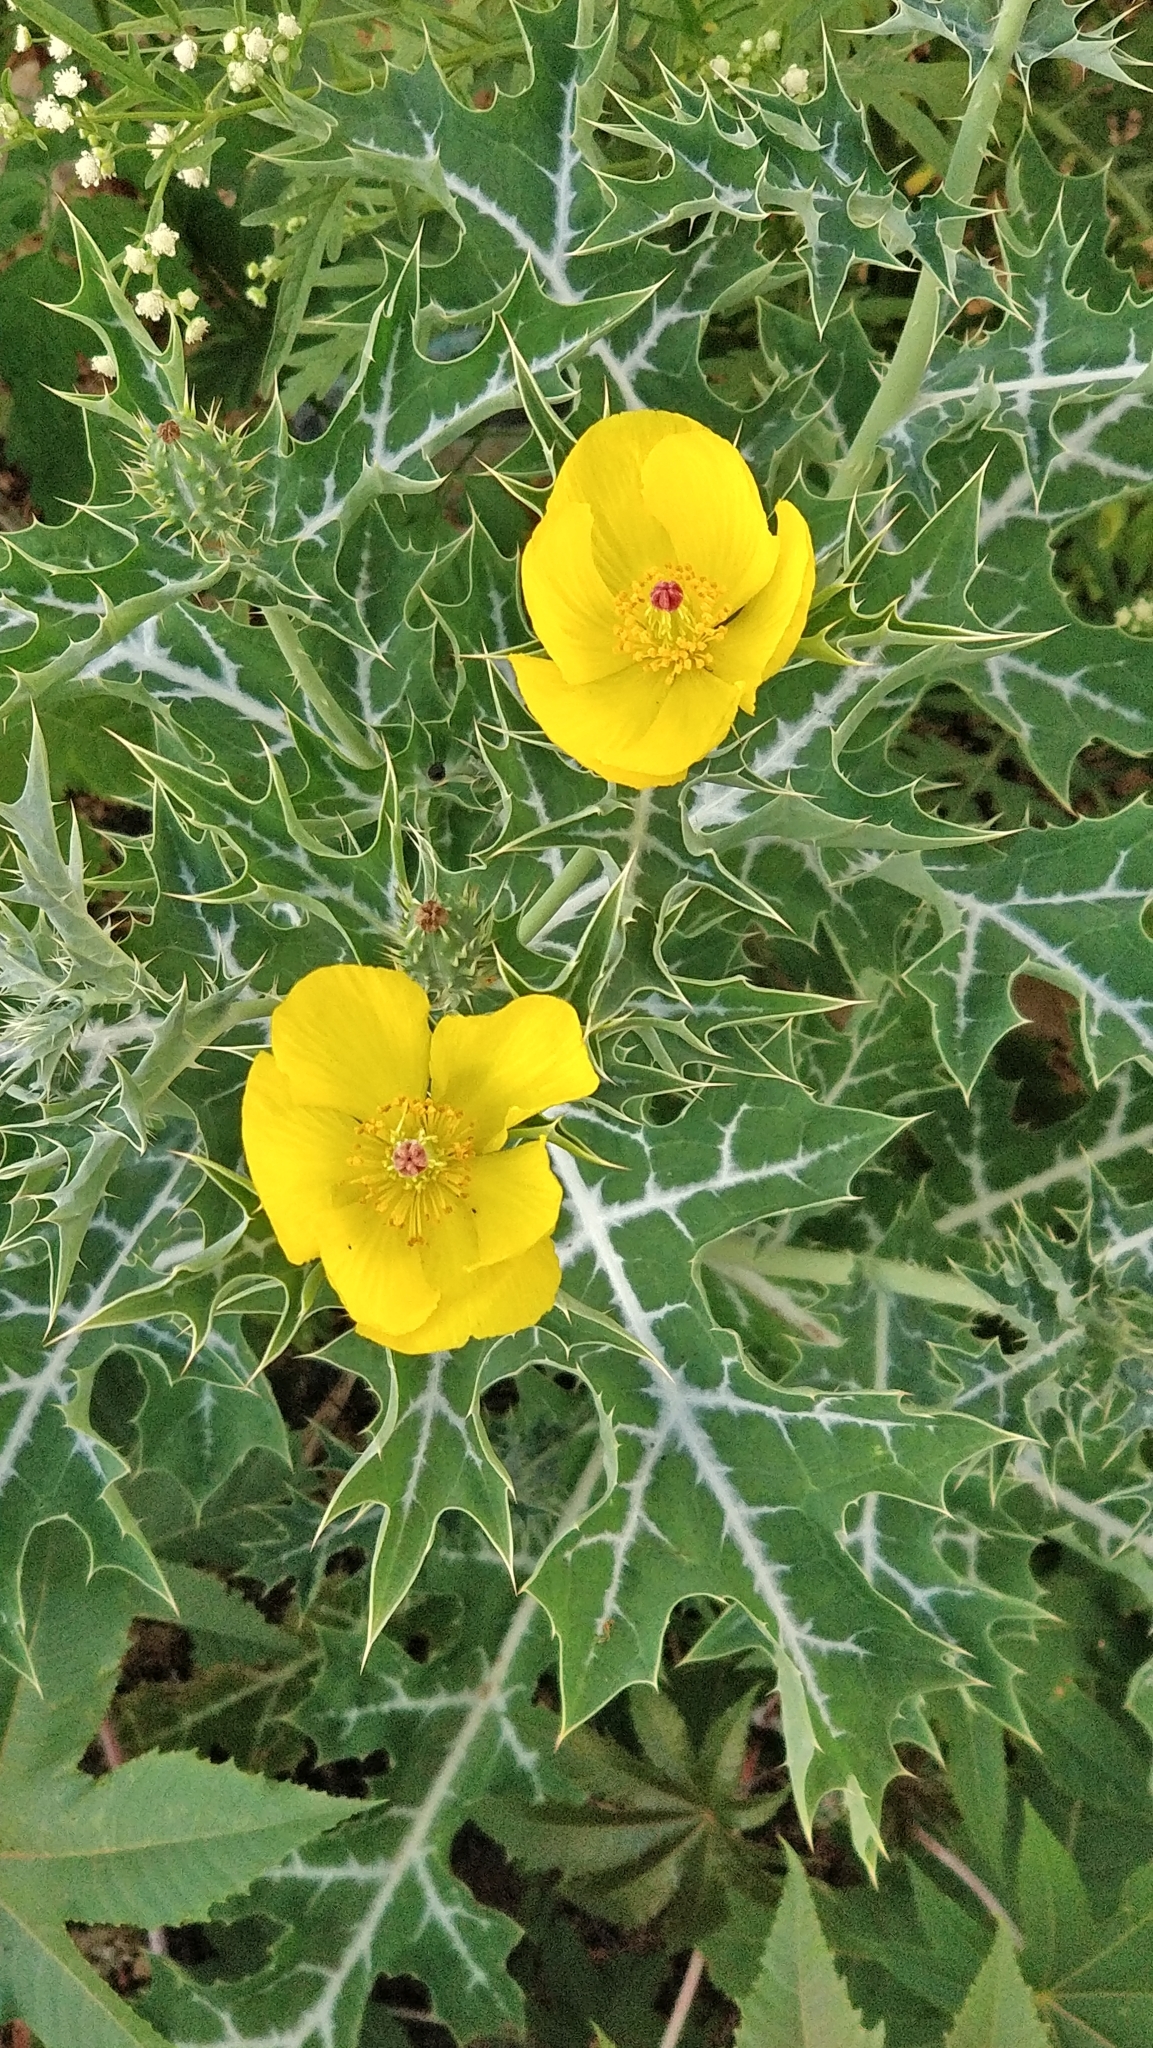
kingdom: Plantae
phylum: Tracheophyta
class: Magnoliopsida
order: Ranunculales
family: Papaveraceae
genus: Argemone
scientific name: Argemone mexicana
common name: Mexican poppy
